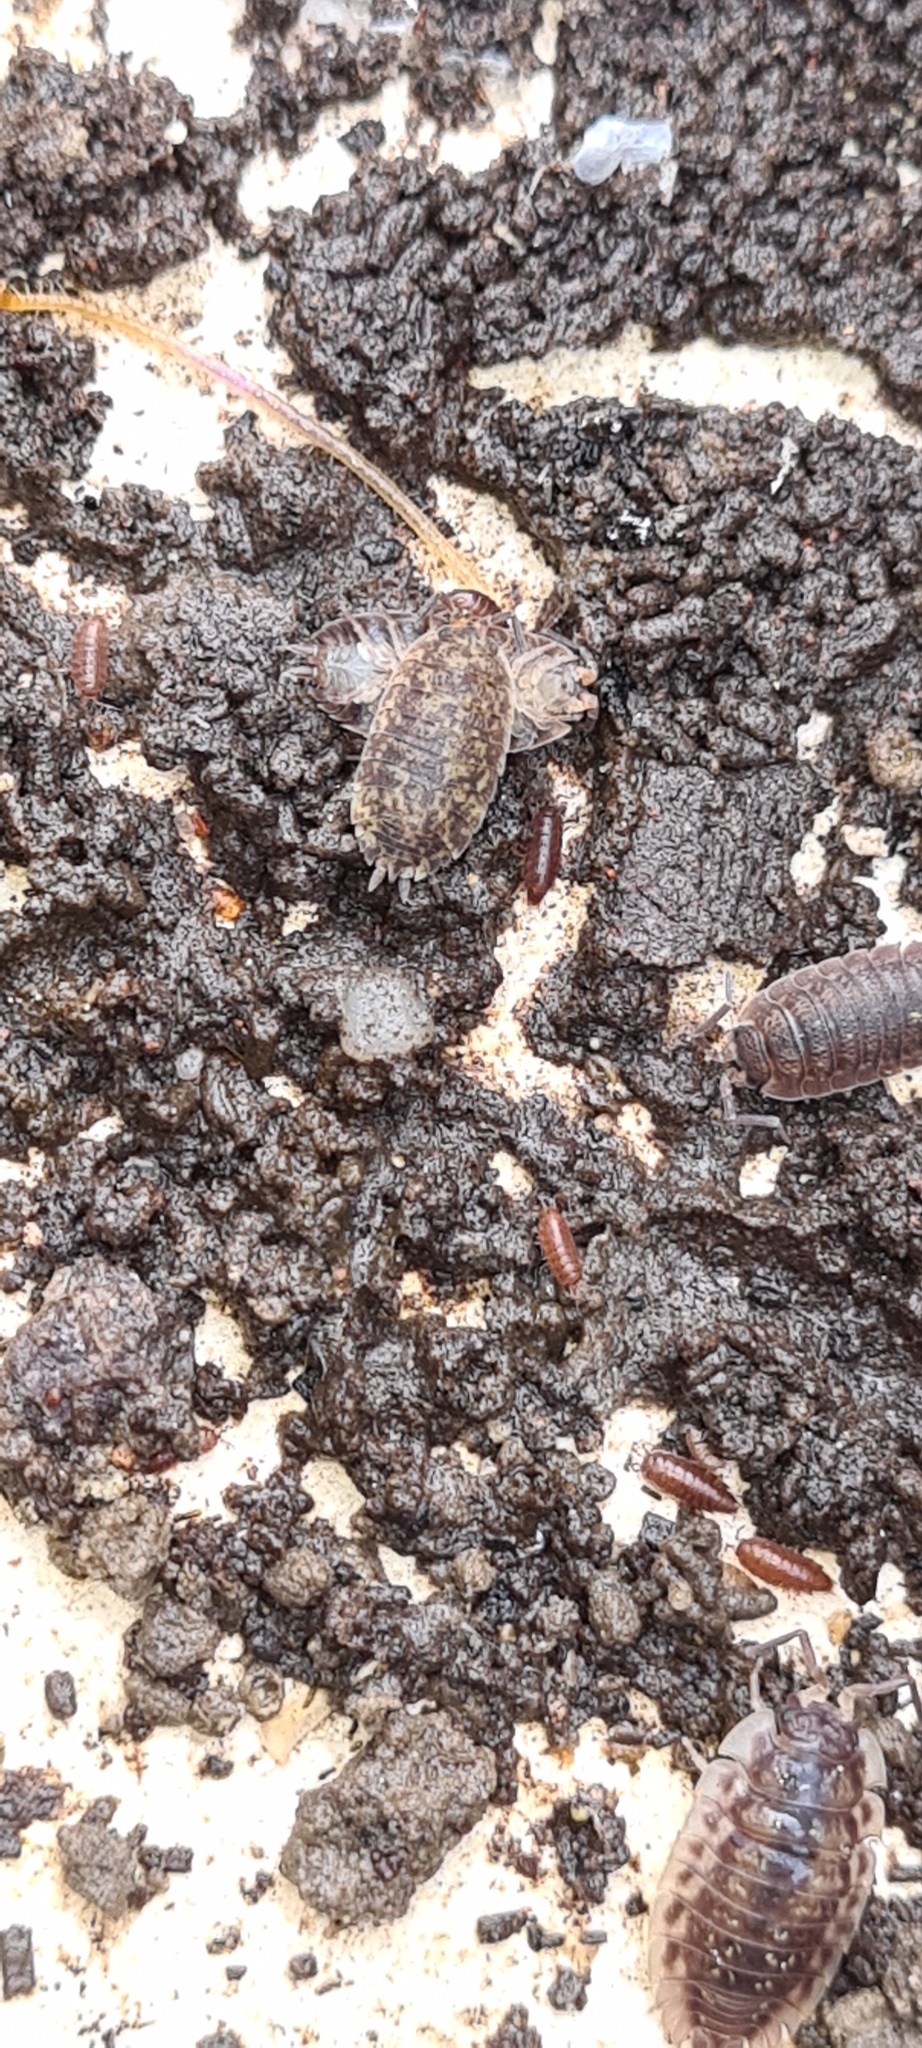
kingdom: Animalia
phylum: Arthropoda
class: Malacostraca
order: Isopoda
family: Oniscidae
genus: Oniscus
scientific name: Oniscus asellus
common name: Common shiny woodlouse
